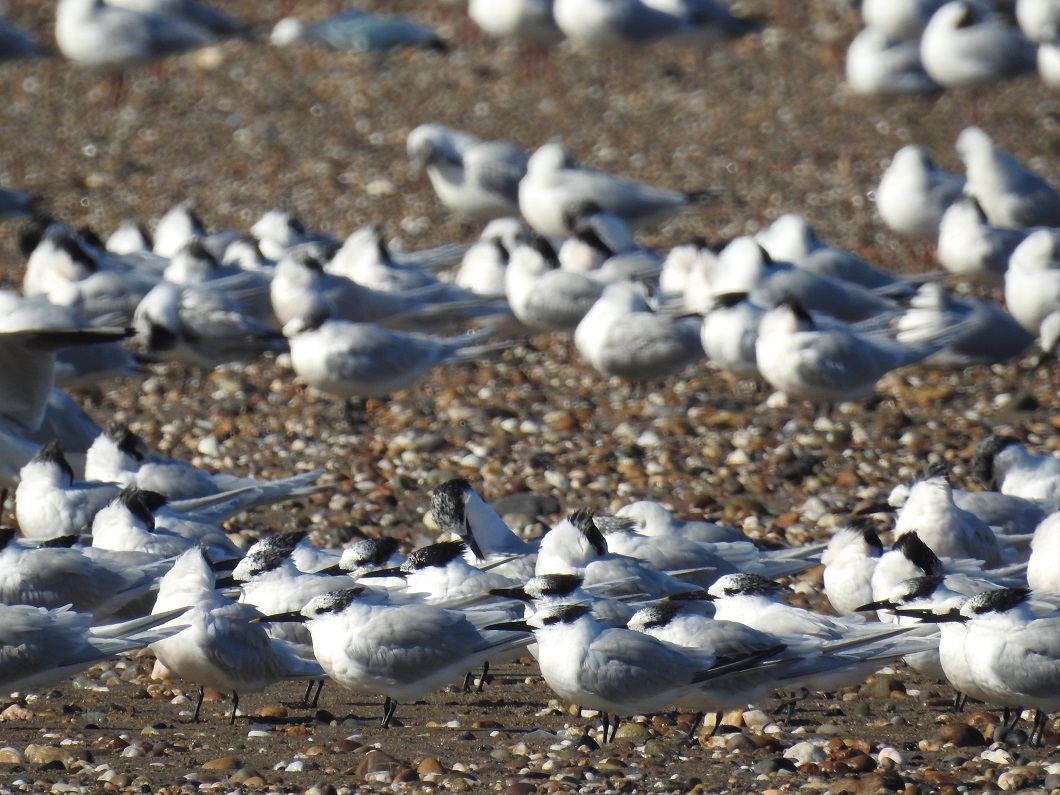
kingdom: Animalia
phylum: Chordata
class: Aves
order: Charadriiformes
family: Laridae
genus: Thalasseus
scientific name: Thalasseus sandvicensis
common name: Sandwich tern
